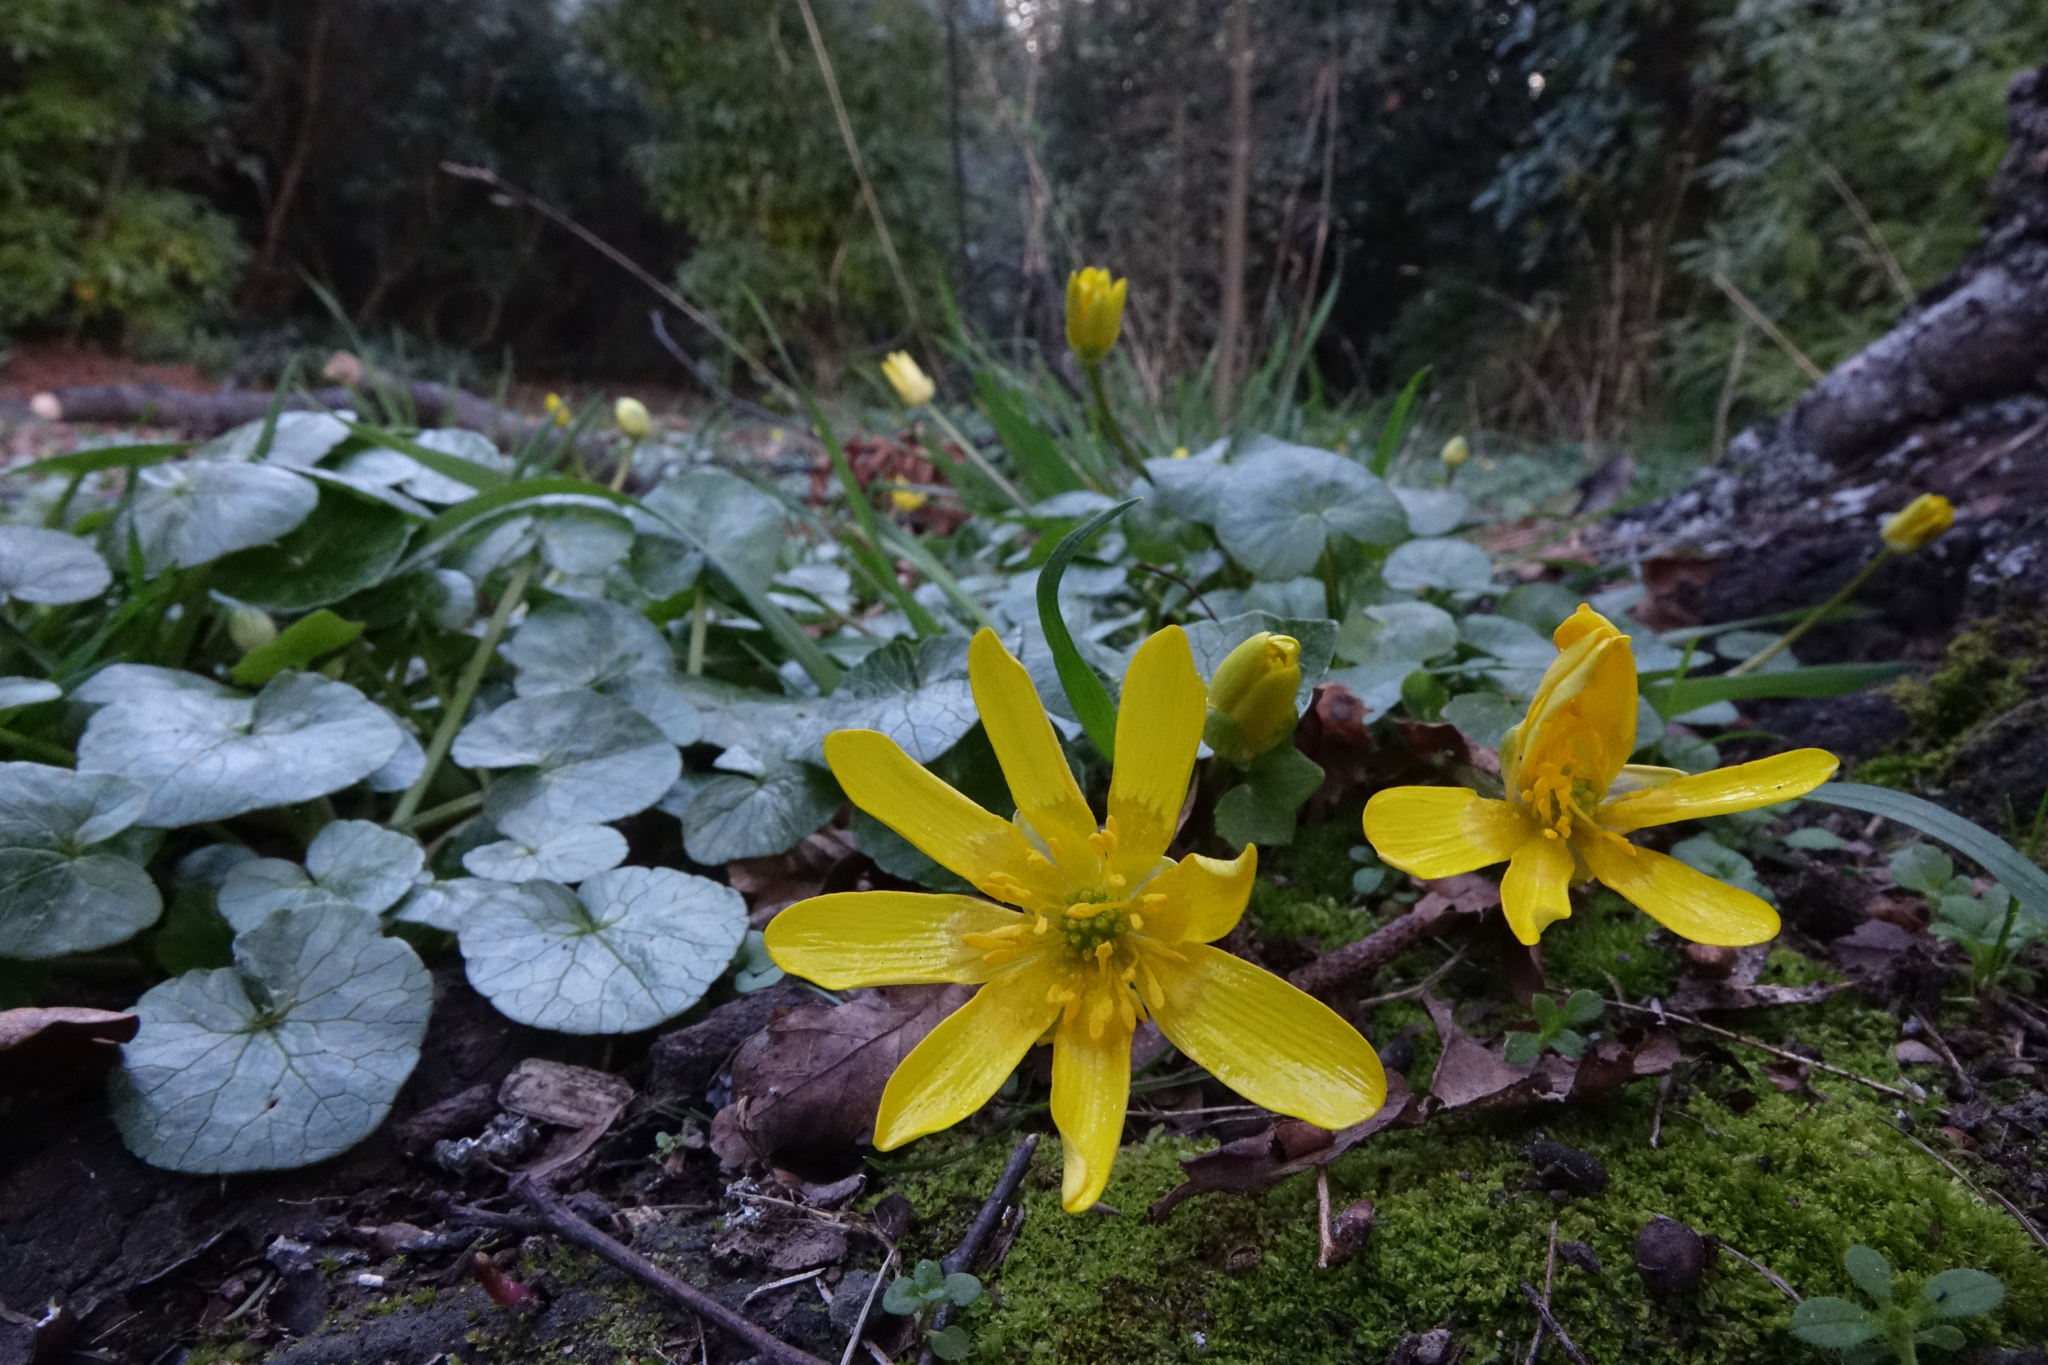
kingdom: Plantae
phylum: Tracheophyta
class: Magnoliopsida
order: Ranunculales
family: Ranunculaceae
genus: Ficaria
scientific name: Ficaria verna
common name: Lesser celandine
